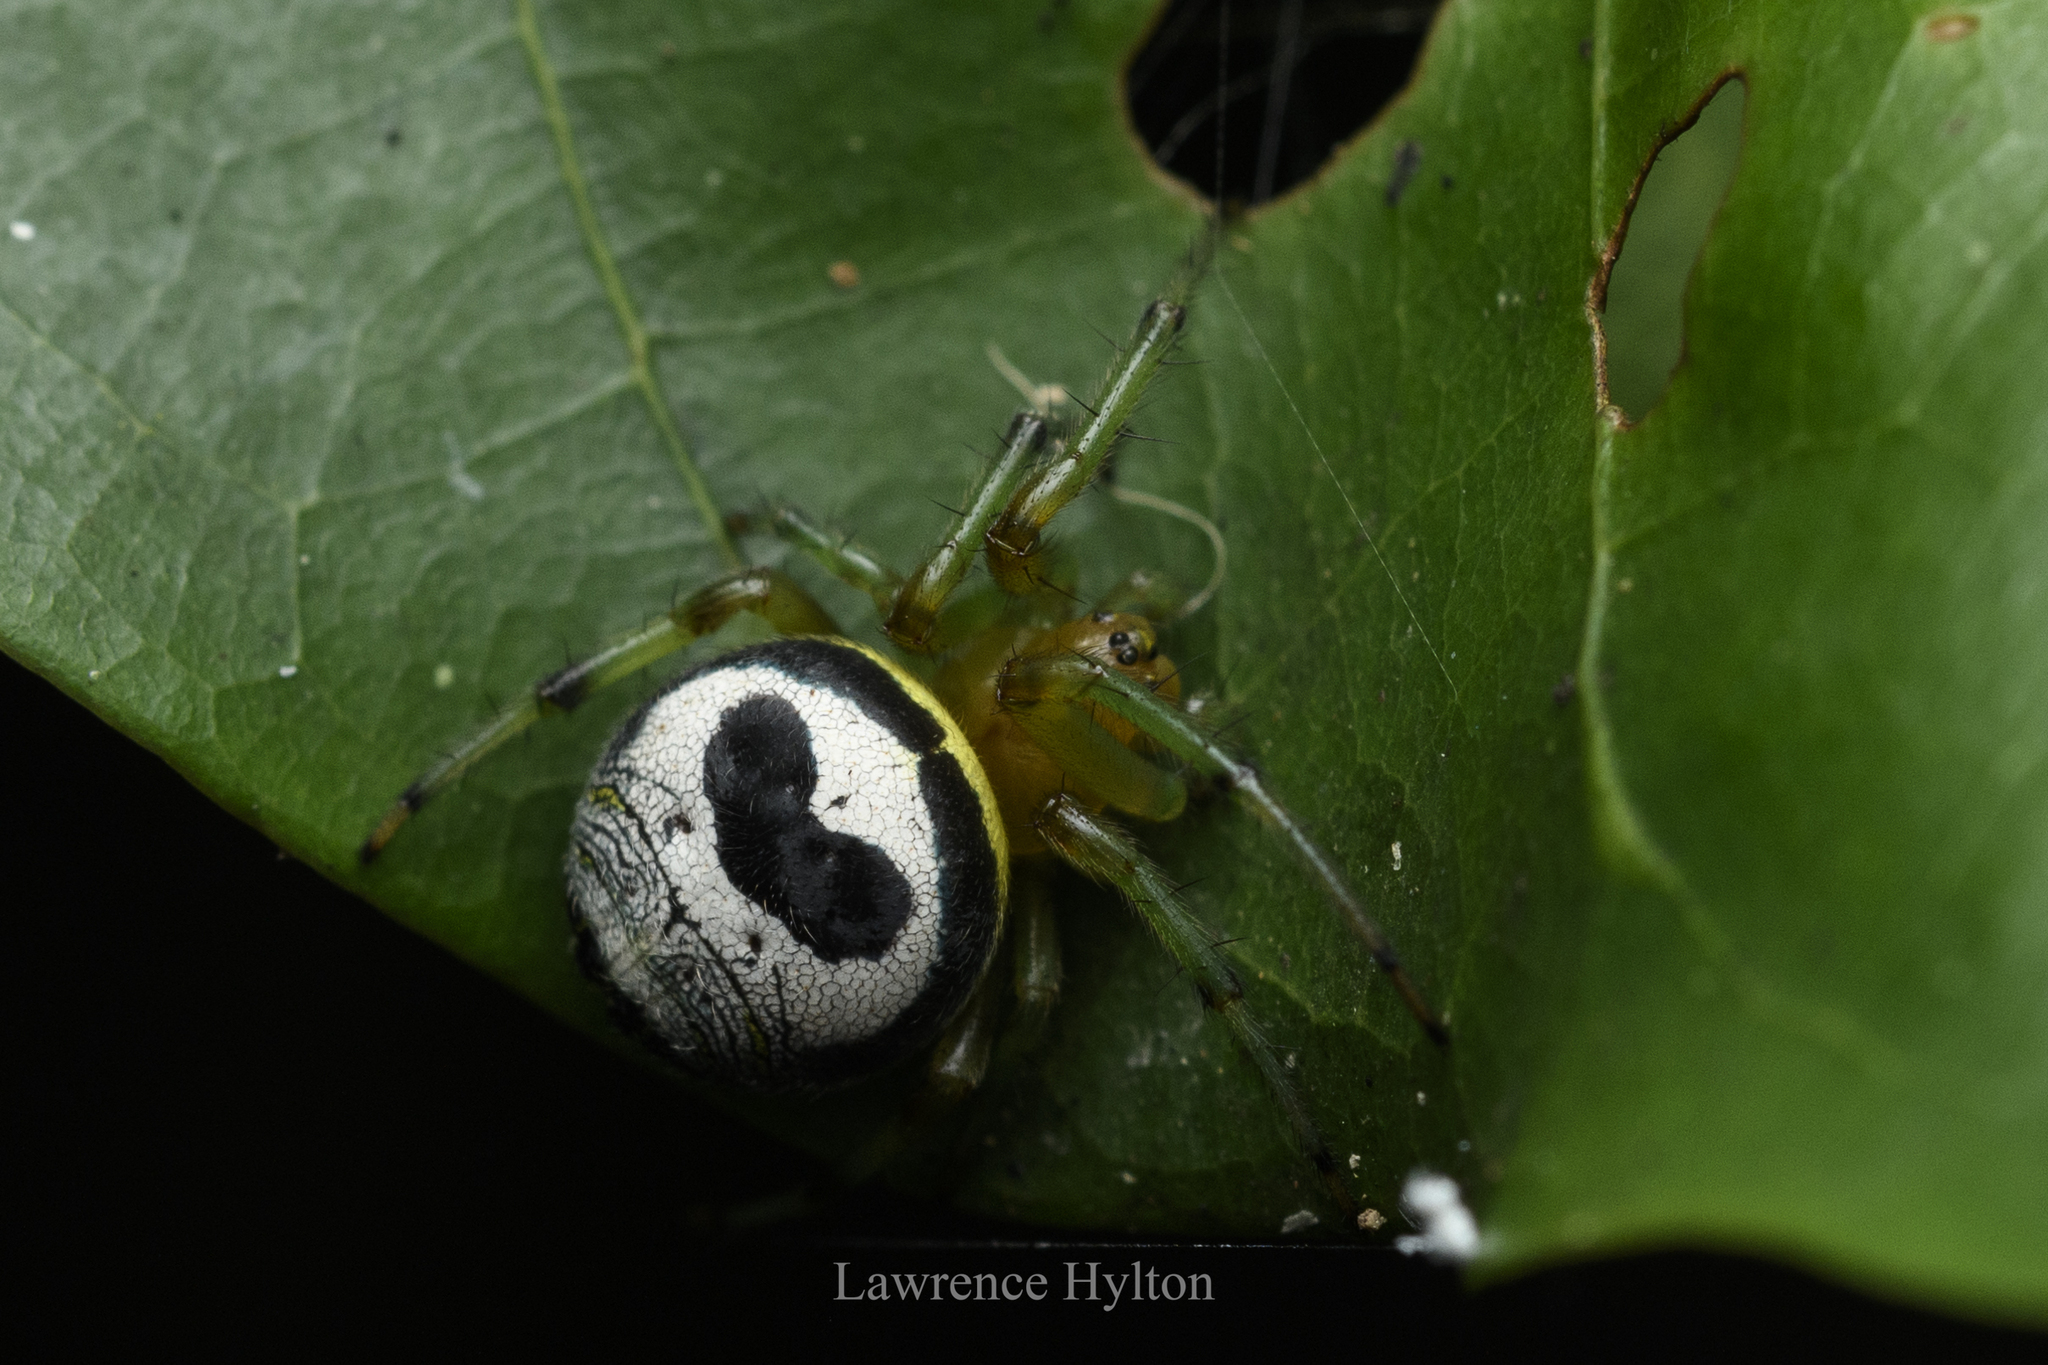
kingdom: Animalia
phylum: Arthropoda
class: Arachnida
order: Araneae
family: Araneidae
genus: Bijoaraneus
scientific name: Bijoaraneus mitificus
